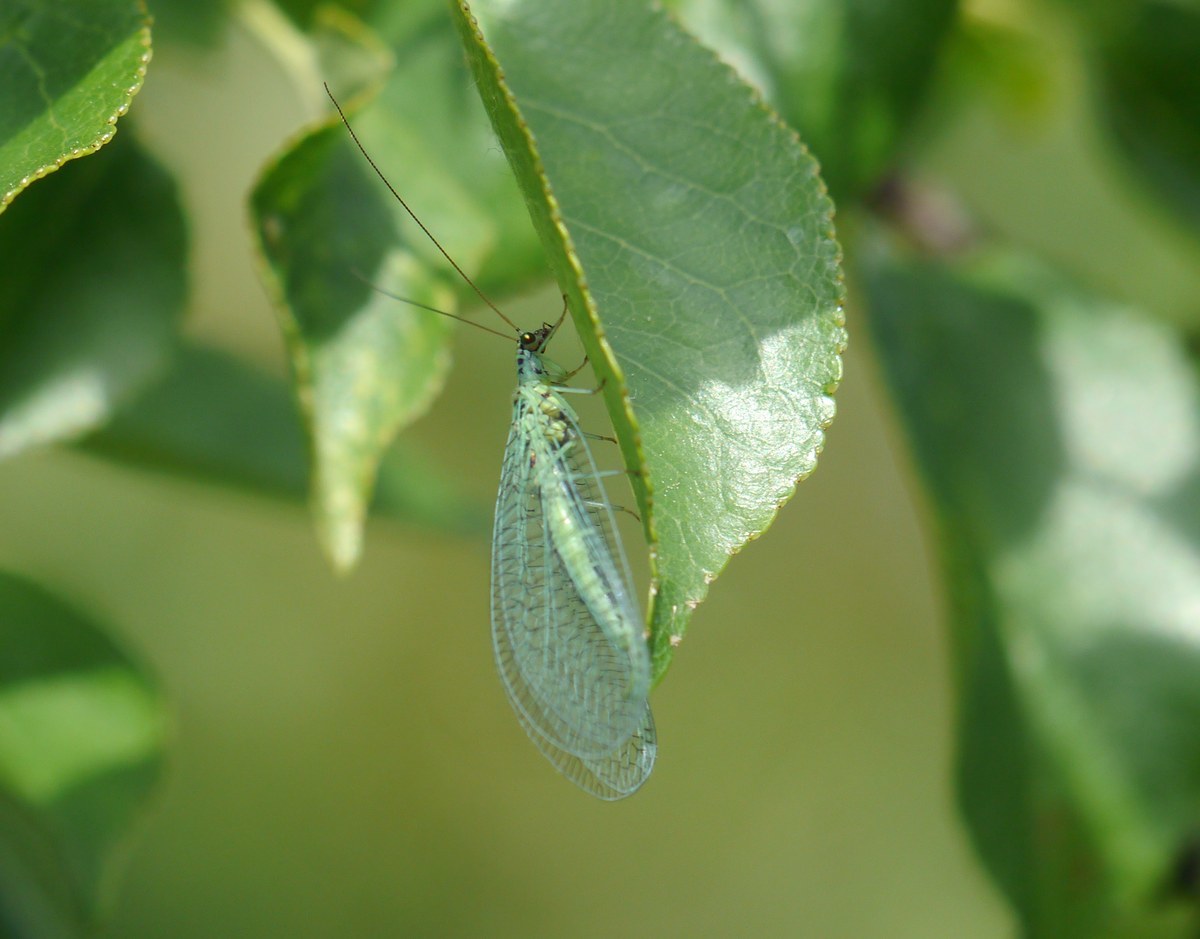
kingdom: Animalia
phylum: Arthropoda
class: Insecta
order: Neuroptera
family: Chrysopidae
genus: Chrysopa
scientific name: Chrysopa perla
